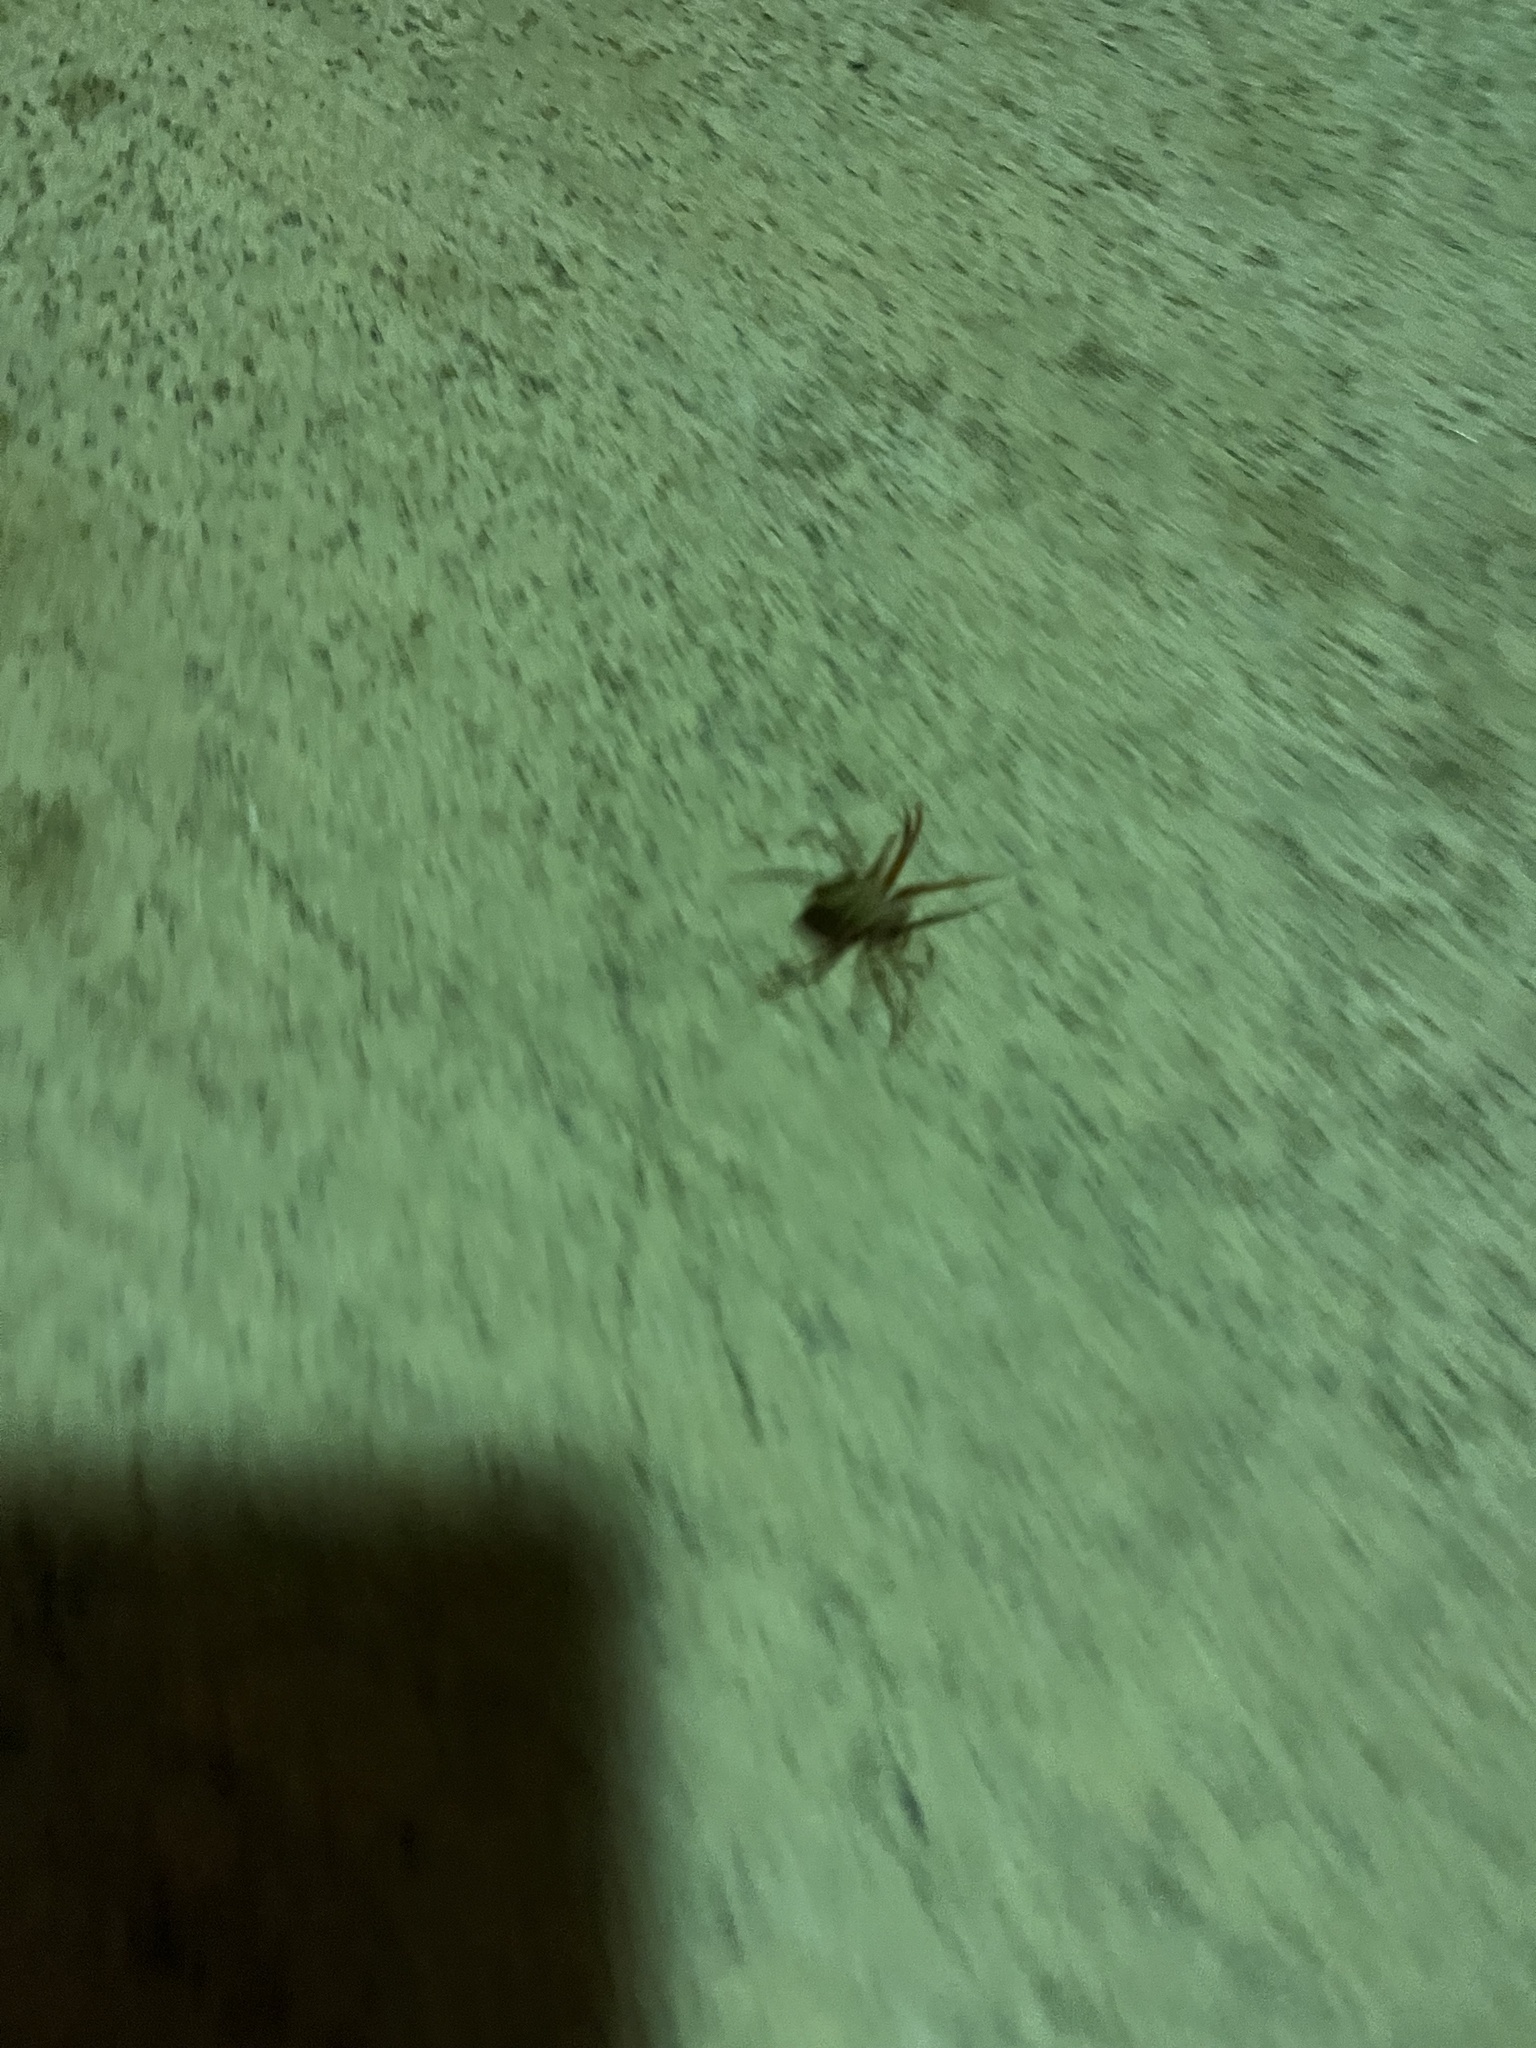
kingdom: Animalia
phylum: Arthropoda
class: Arachnida
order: Araneae
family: Araneidae
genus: Neoscona
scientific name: Neoscona crucifera
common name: Spotted orbweaver
